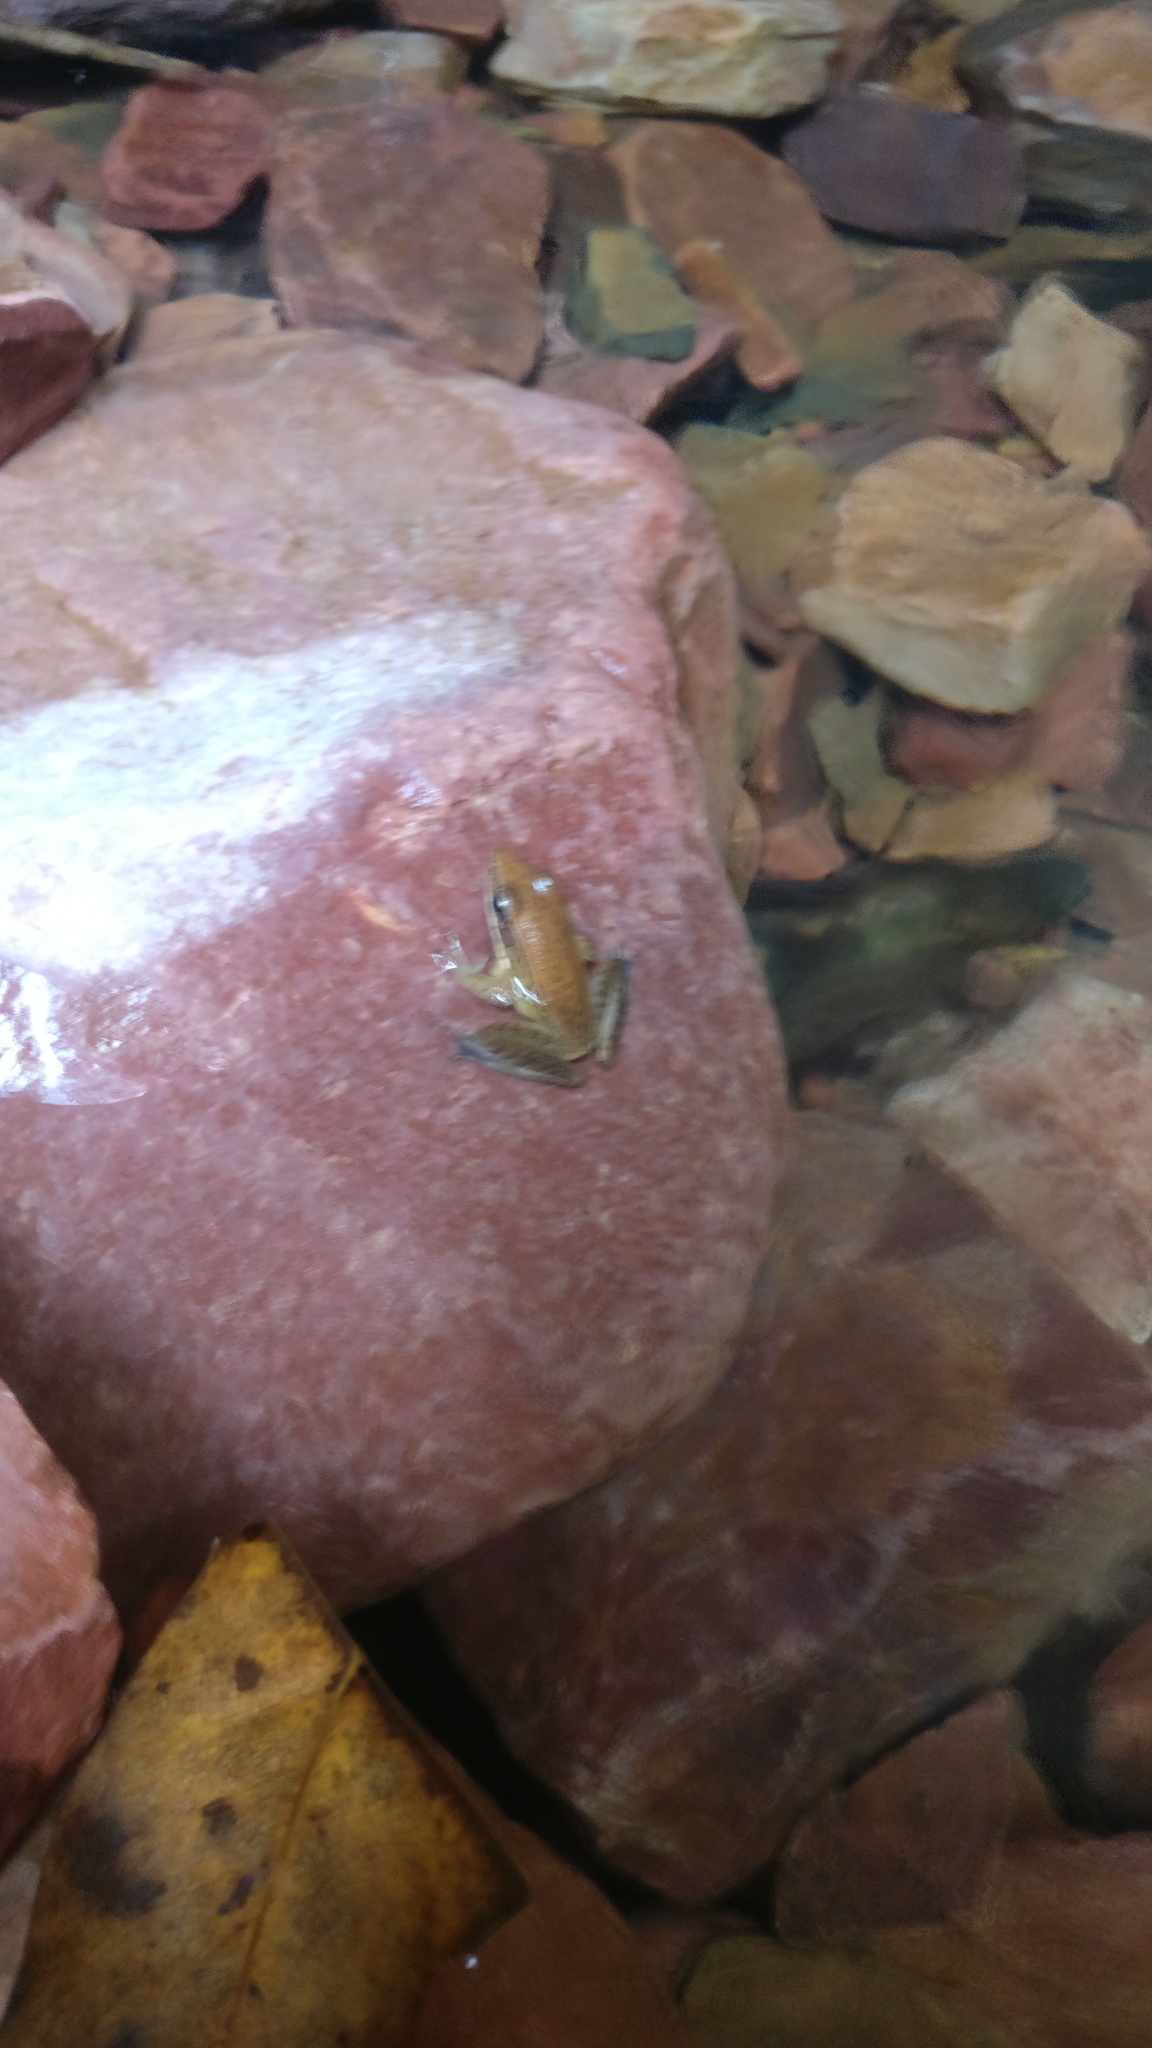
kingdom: Animalia
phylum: Chordata
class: Amphibia
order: Anura
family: Ranidae
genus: Indosylvirana
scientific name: Indosylvirana sreeni
